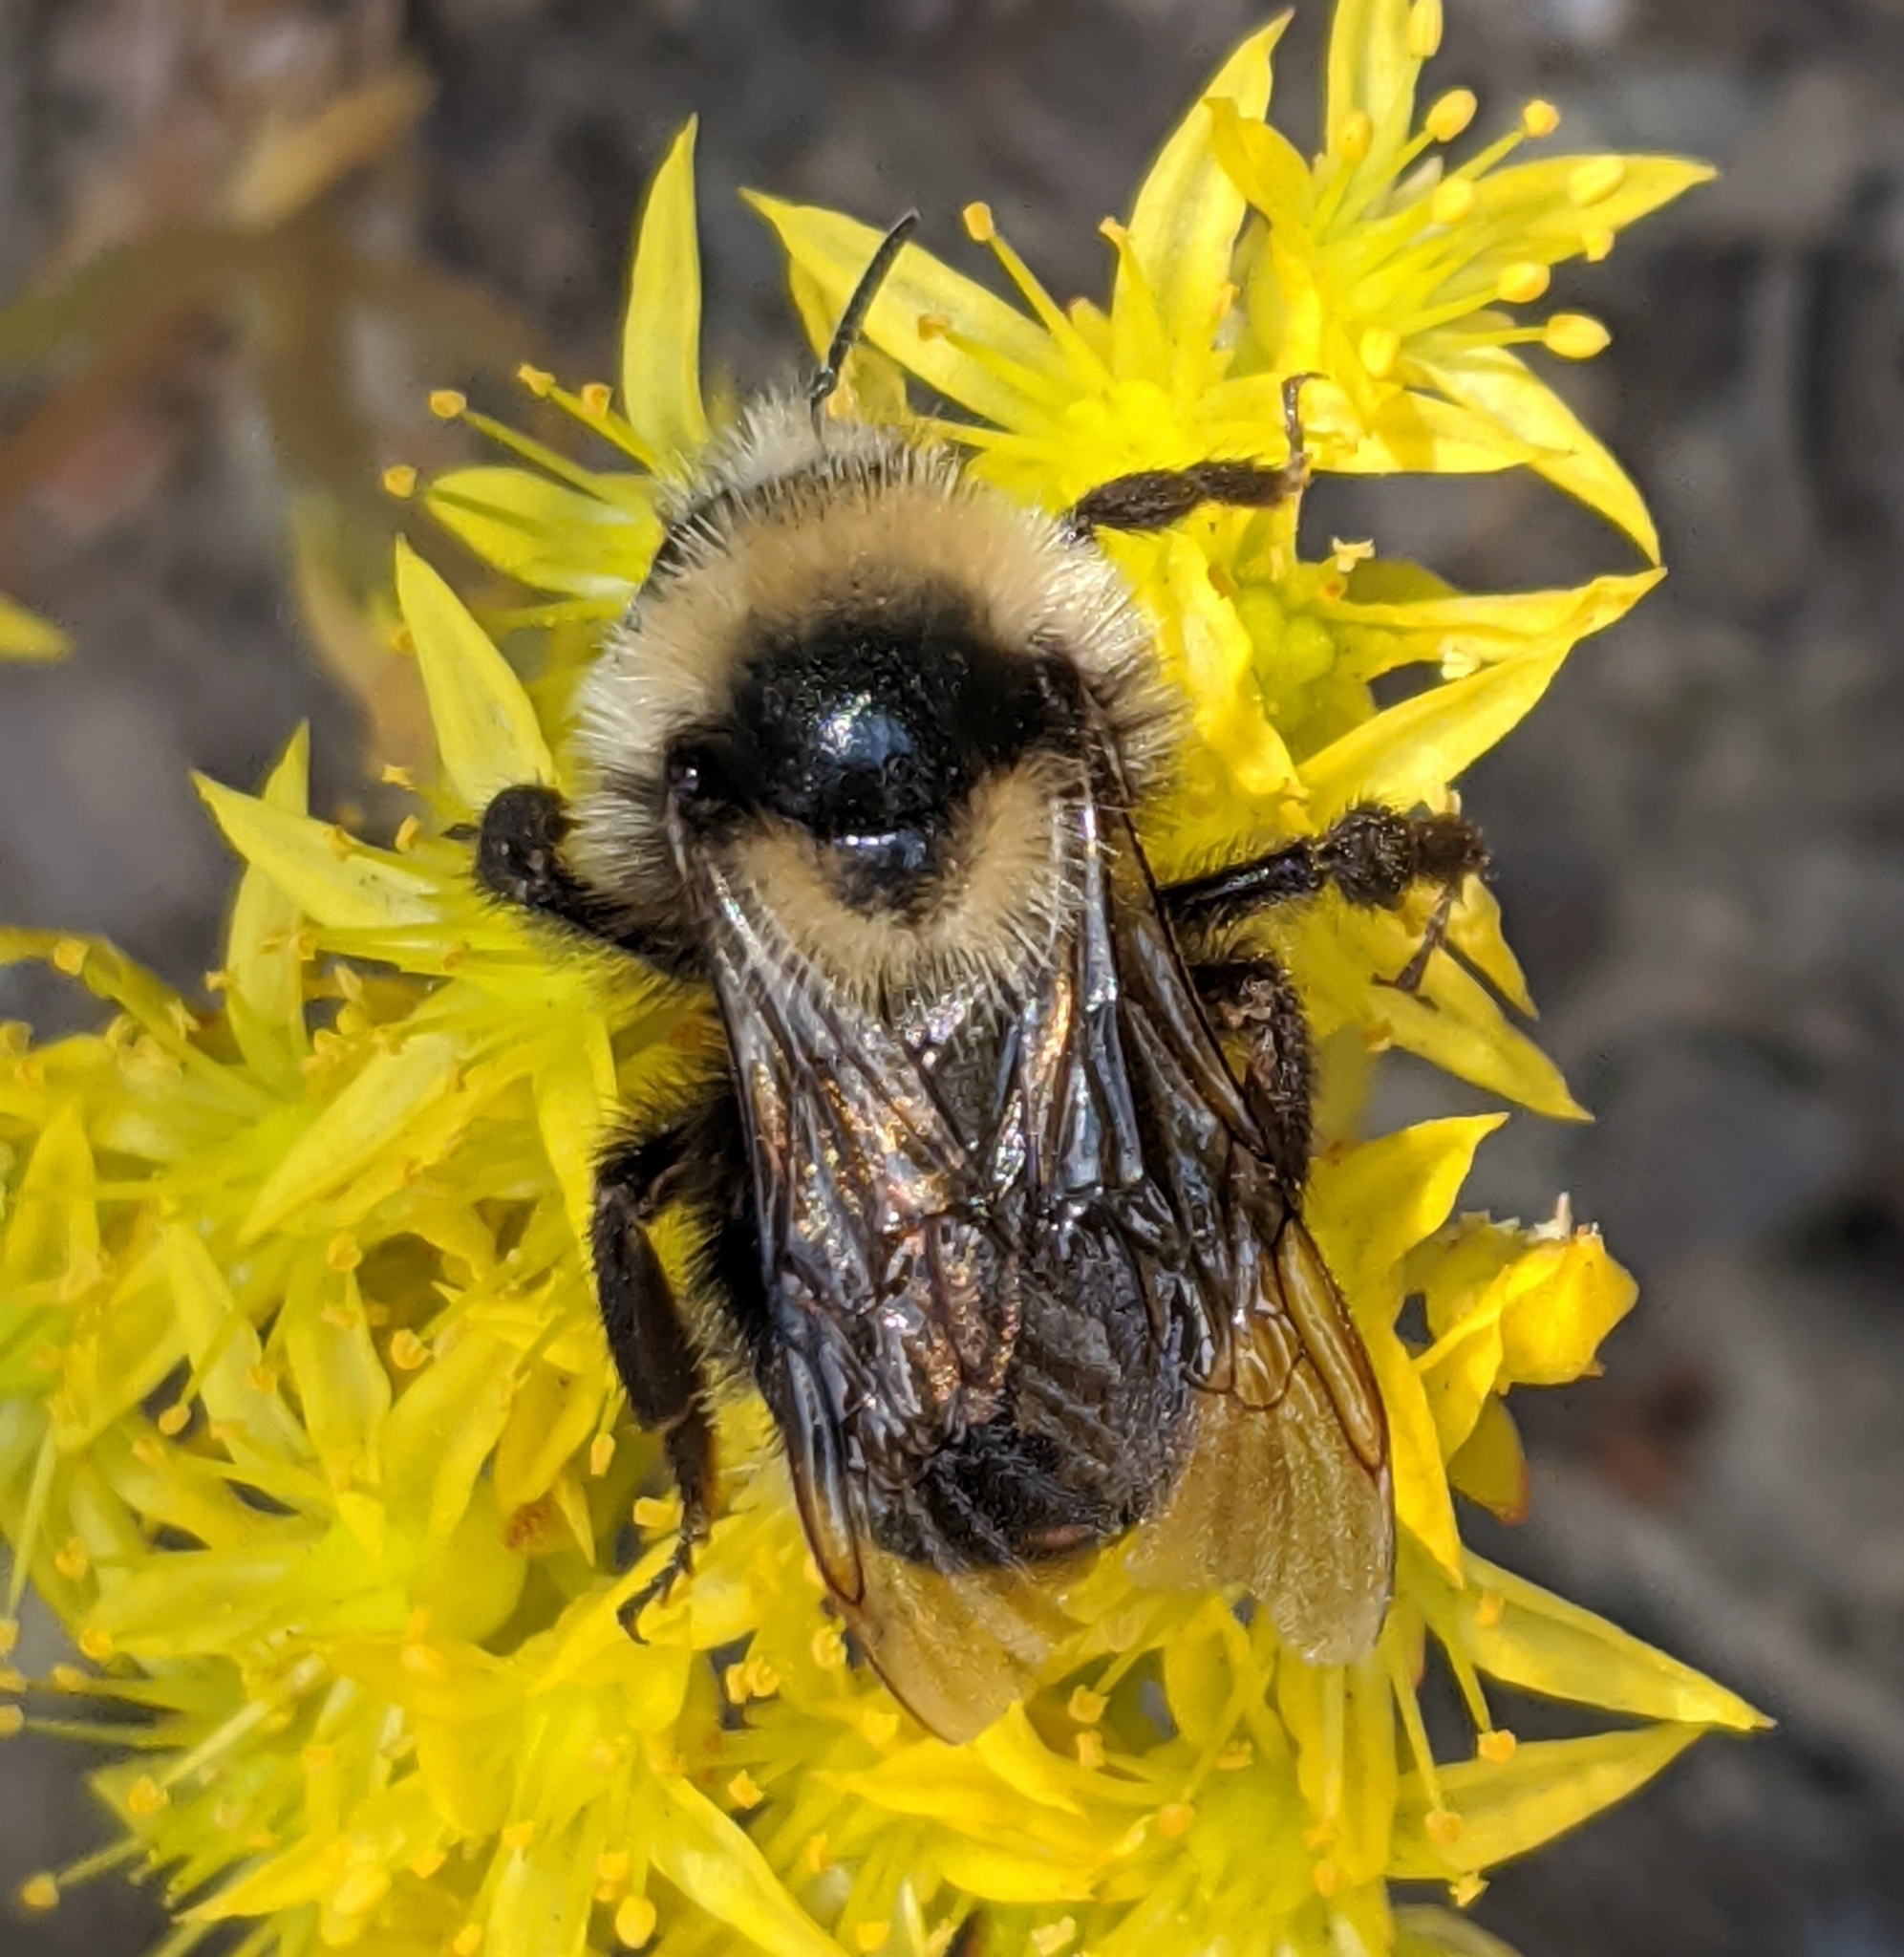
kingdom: Animalia
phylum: Arthropoda
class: Insecta
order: Hymenoptera
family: Apidae
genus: Bombus
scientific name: Bombus insularis
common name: Indiscriminate cuckoo bumble bee
